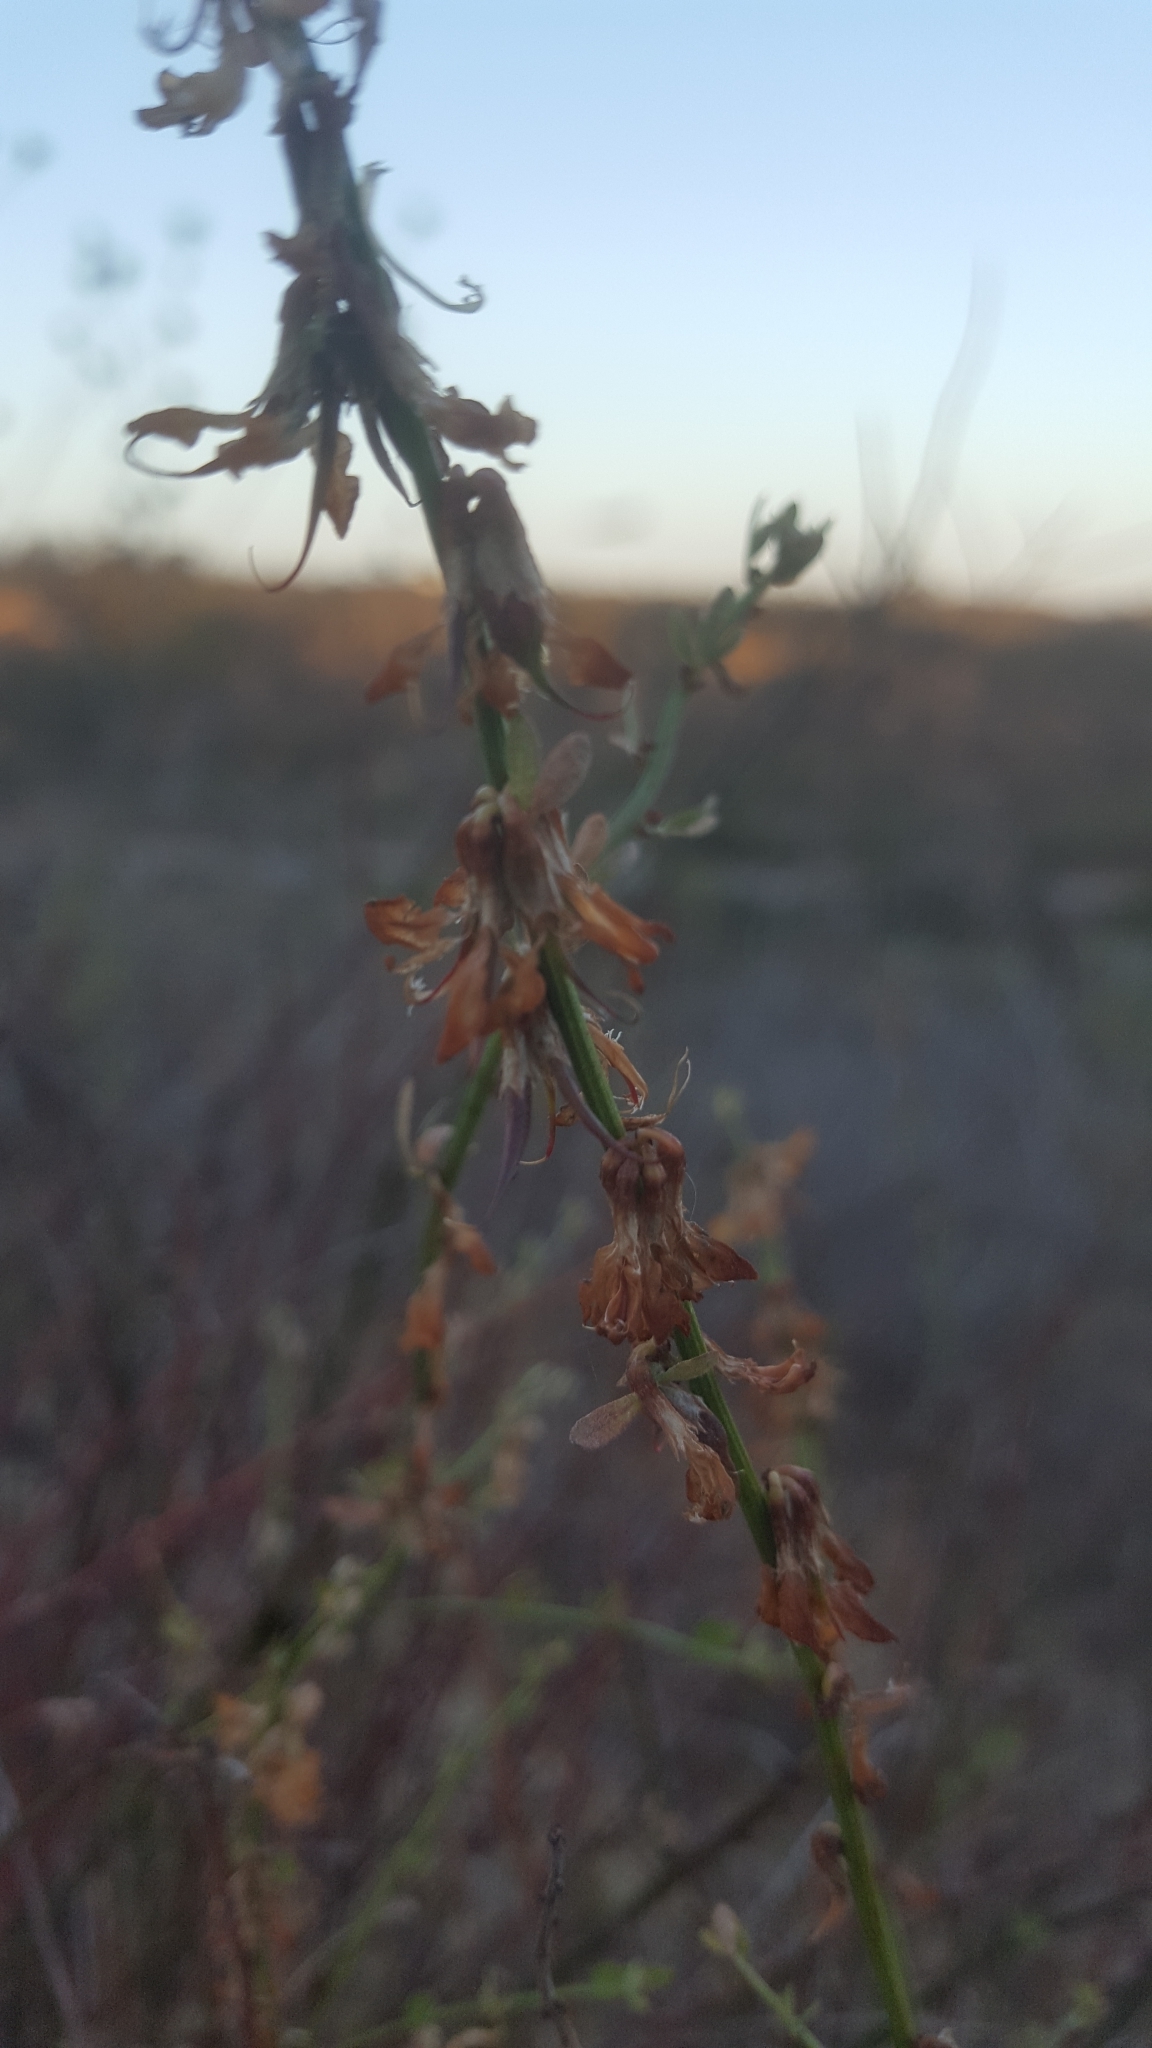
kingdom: Plantae
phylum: Tracheophyta
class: Magnoliopsida
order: Fabales
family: Fabaceae
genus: Acmispon
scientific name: Acmispon glaber
